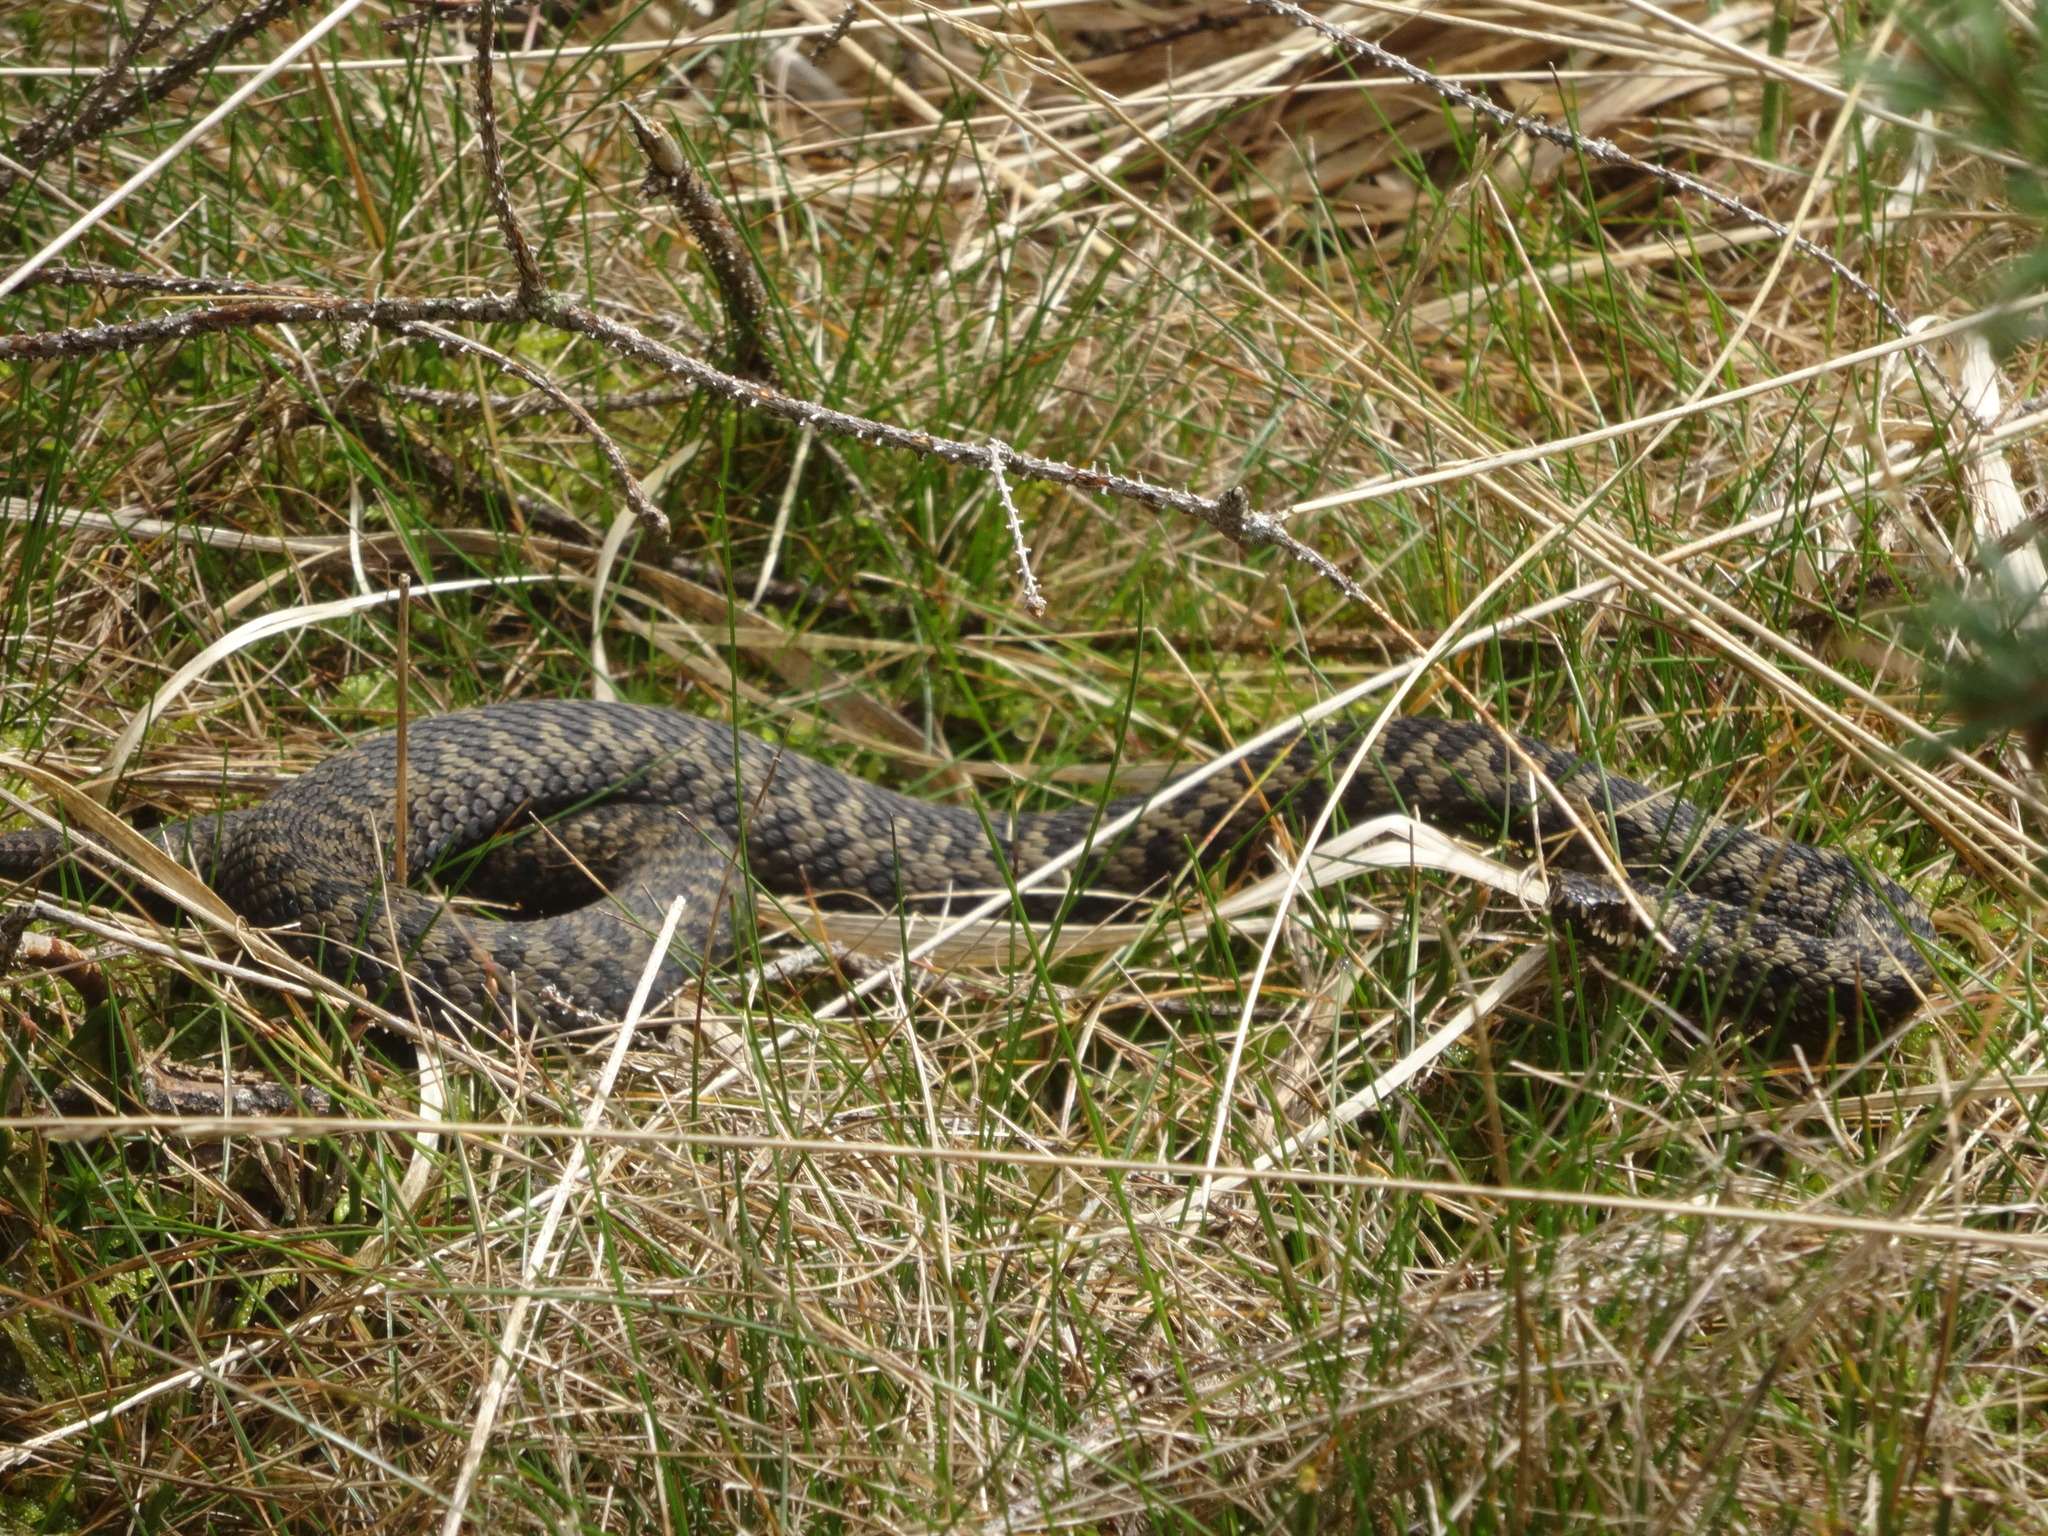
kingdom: Animalia
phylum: Chordata
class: Squamata
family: Viperidae
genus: Vipera
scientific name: Vipera berus
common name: Adder
